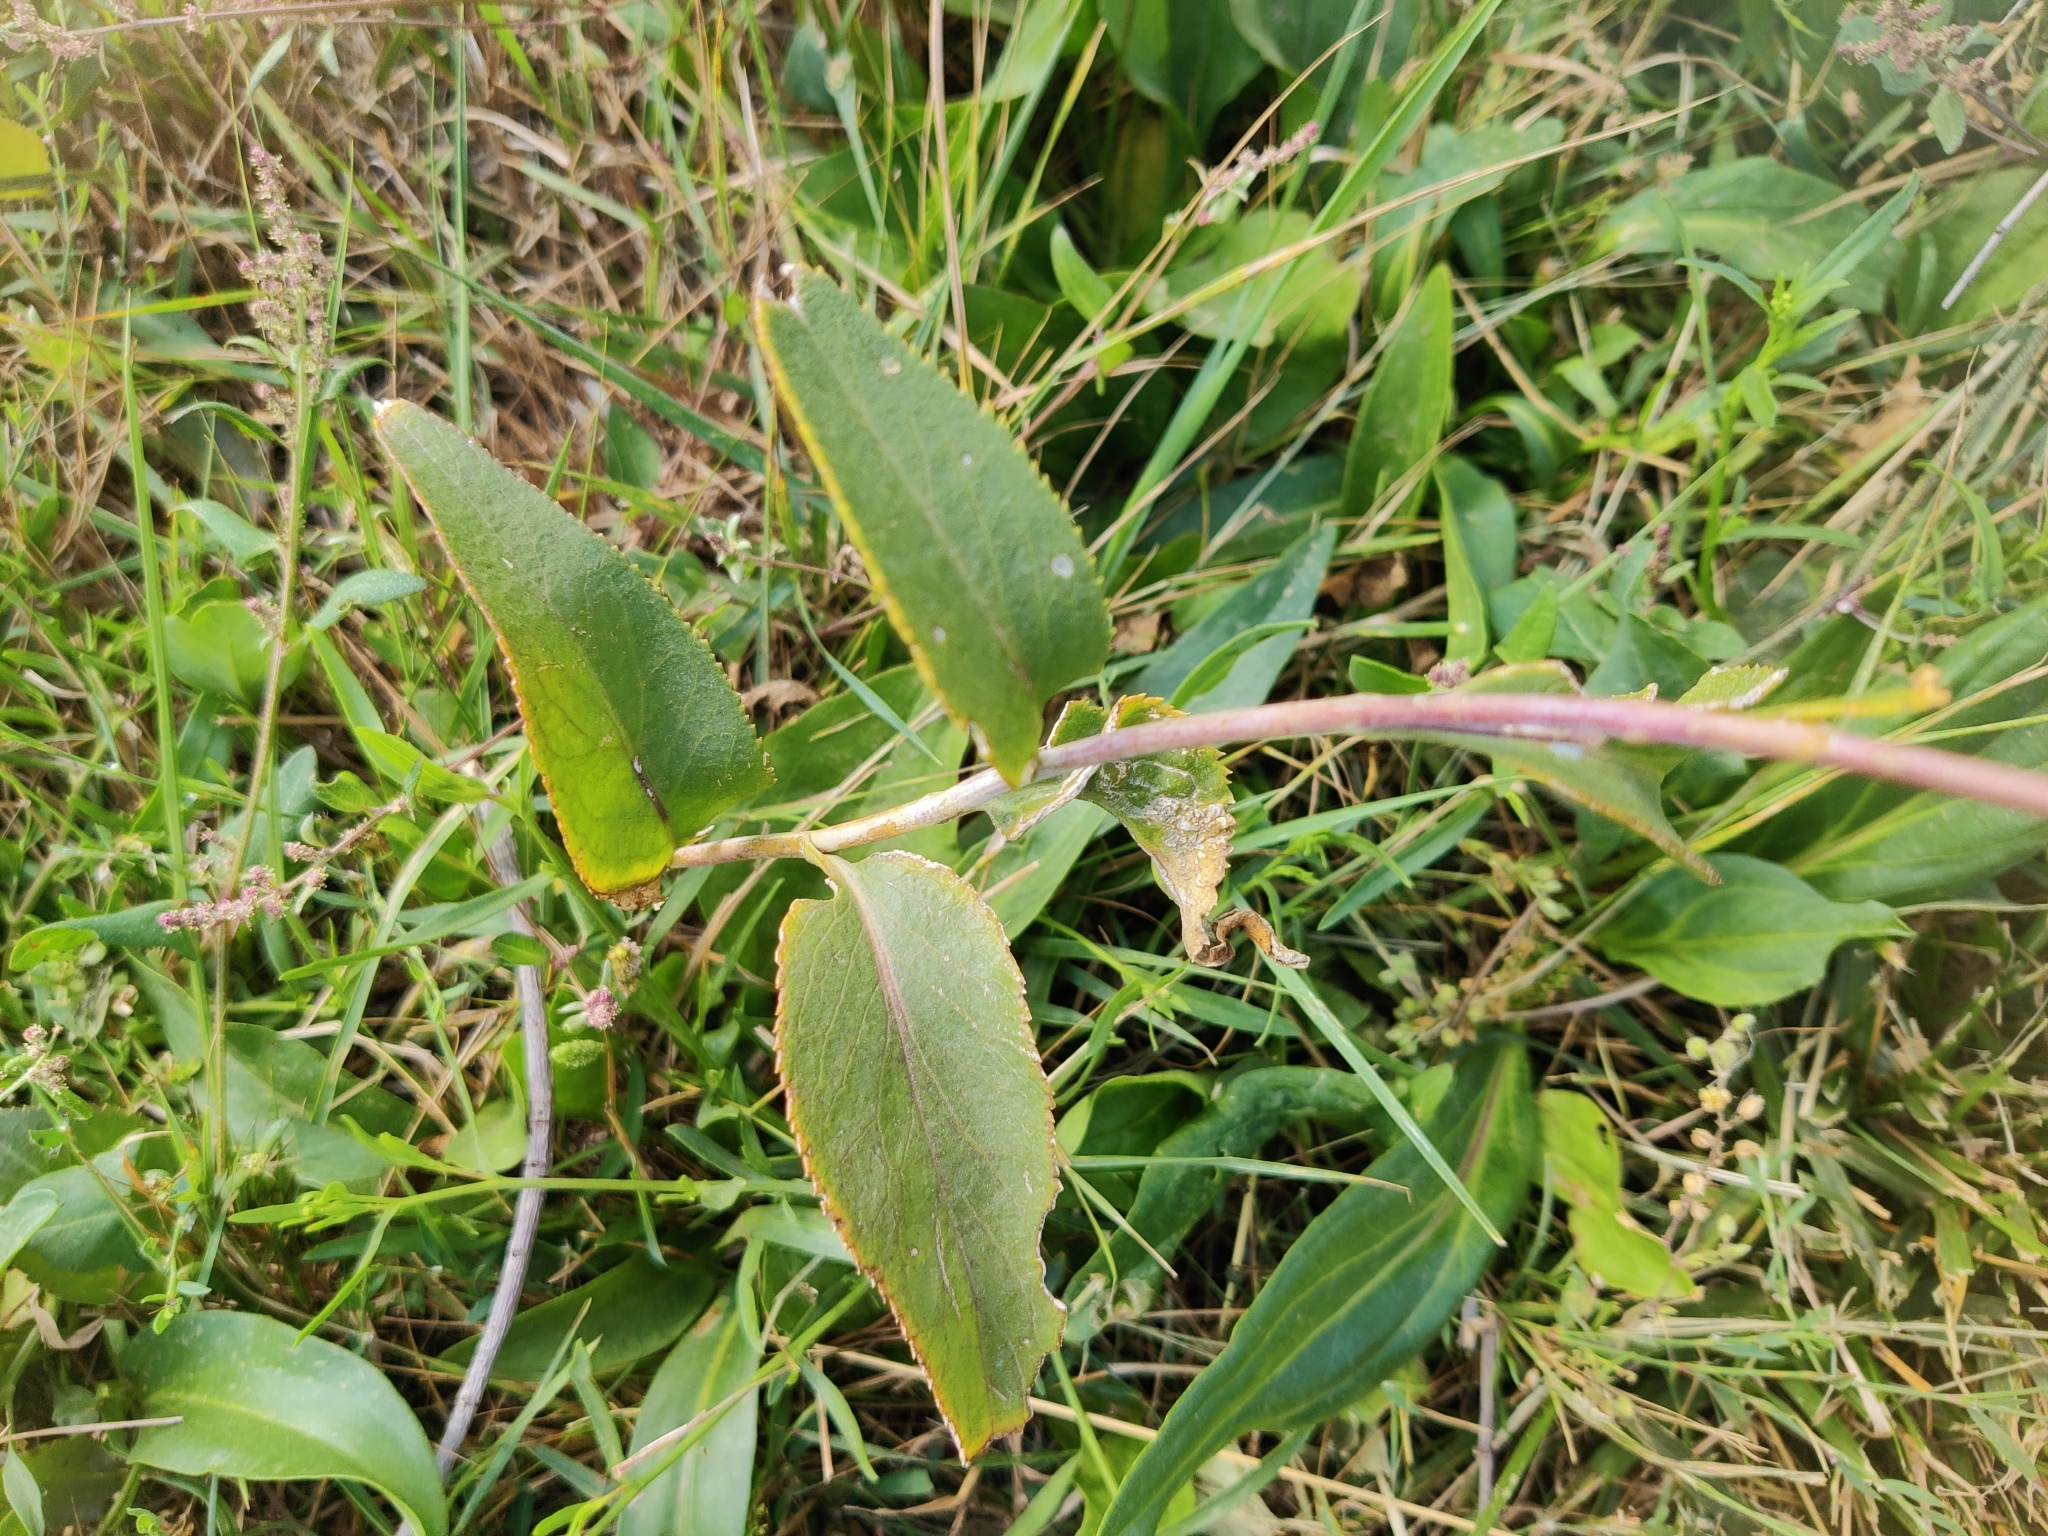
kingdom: Plantae
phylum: Tracheophyta
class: Magnoliopsida
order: Brassicales
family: Brassicaceae
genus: Lepidium
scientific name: Lepidium latifolium
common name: Dittander
